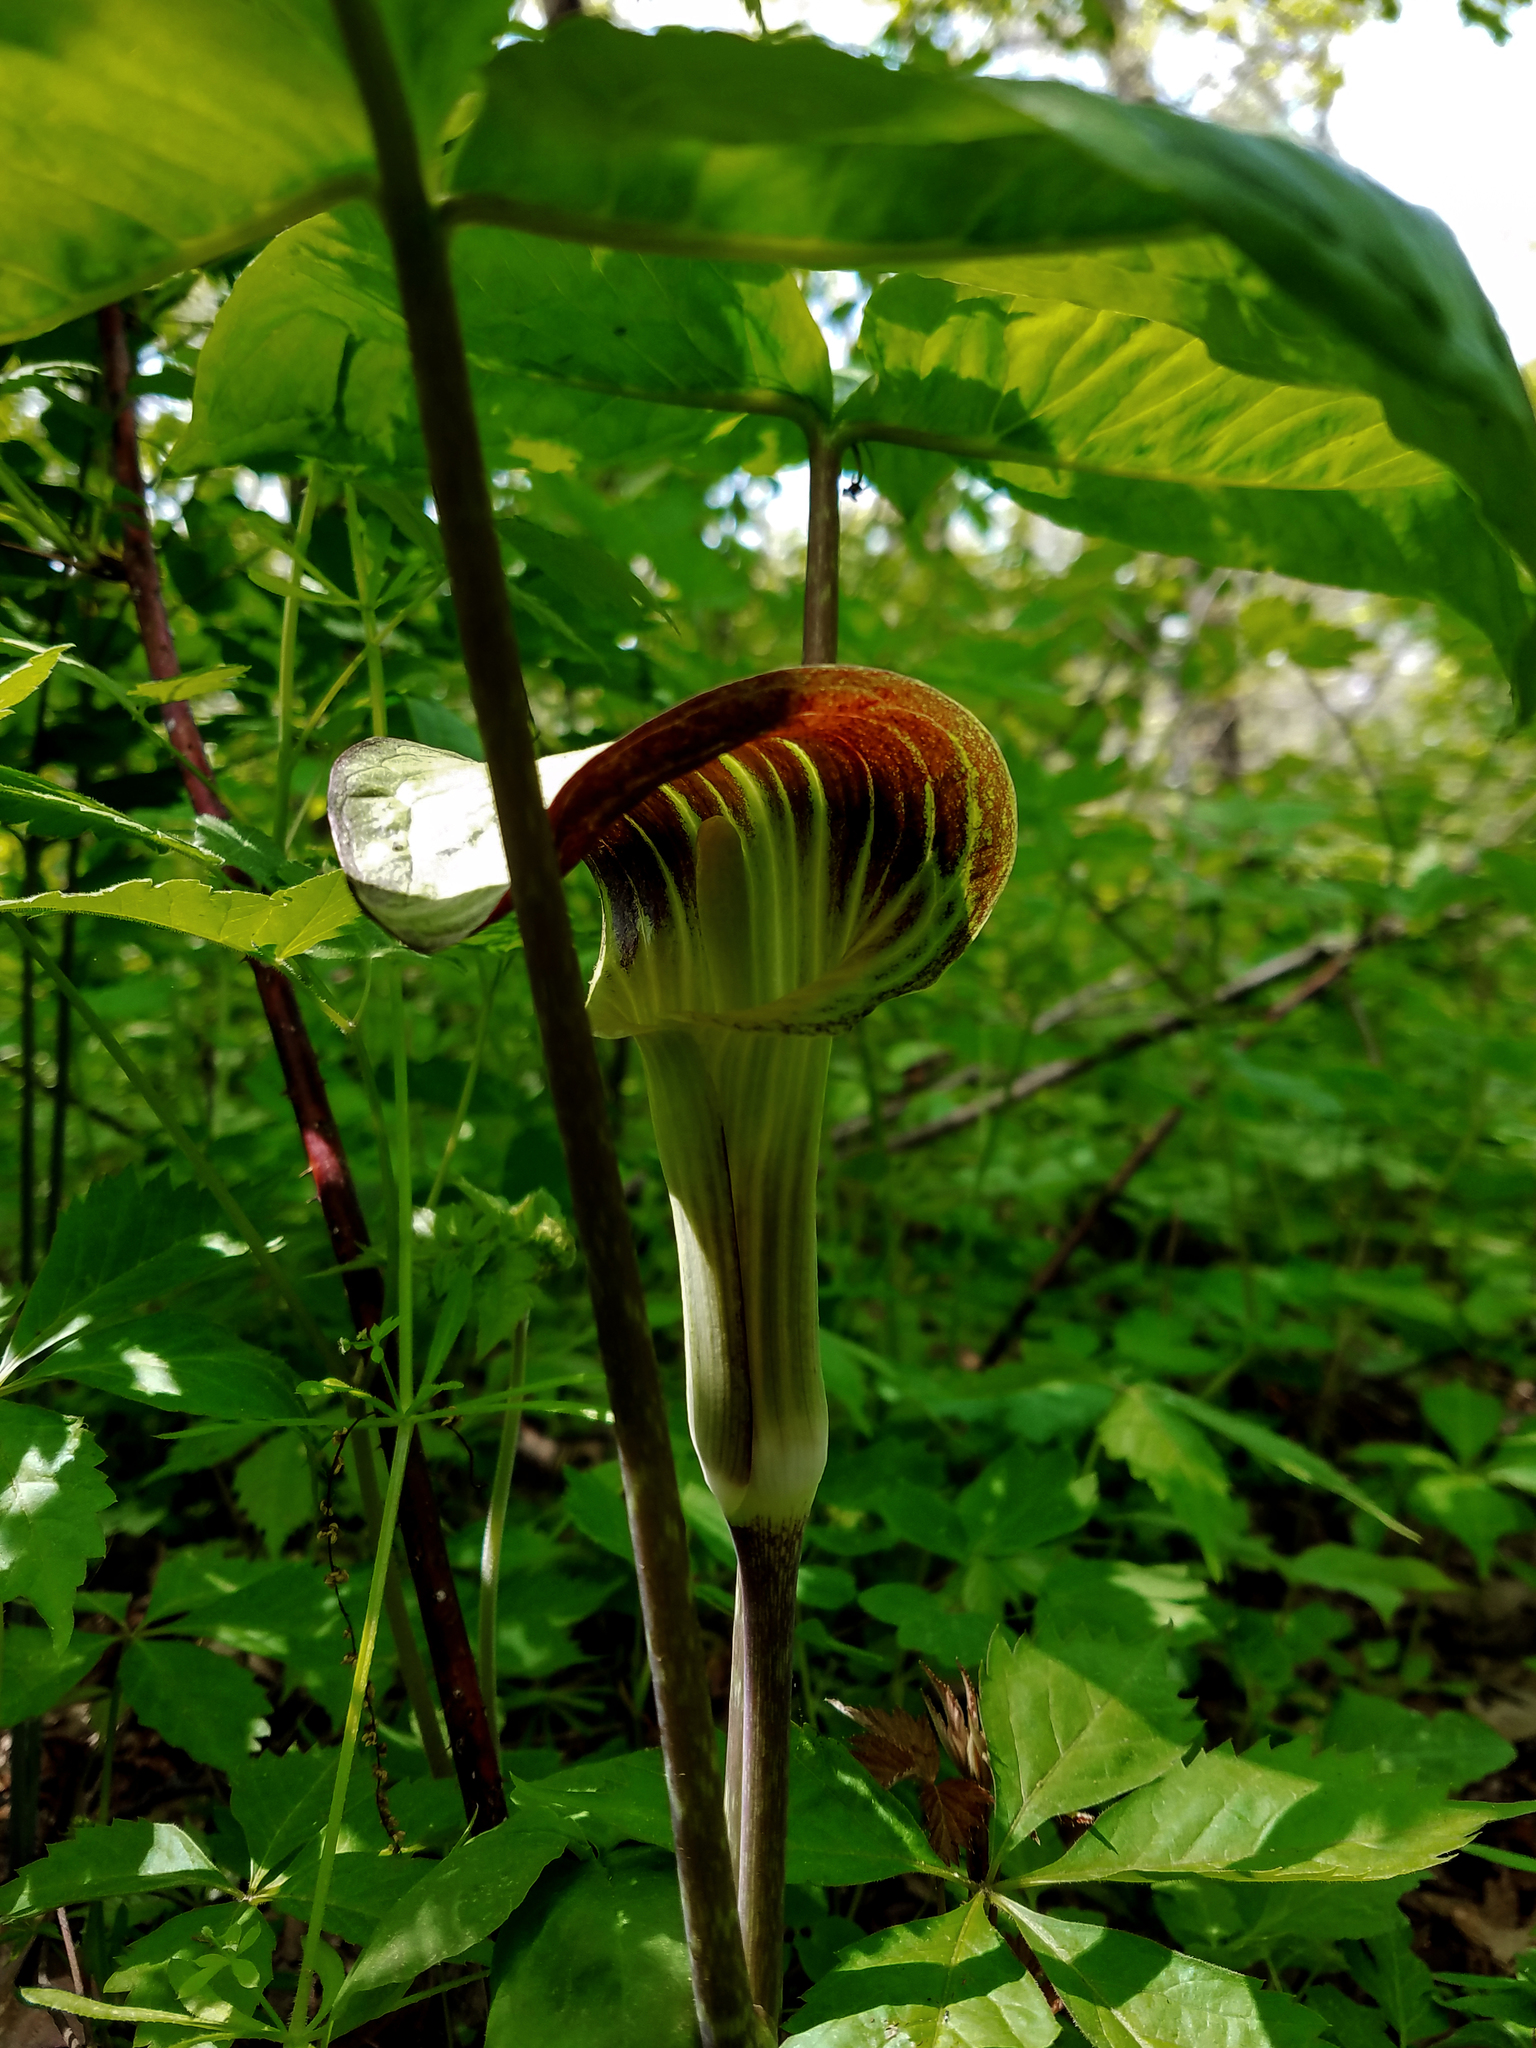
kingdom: Plantae
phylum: Tracheophyta
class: Liliopsida
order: Alismatales
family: Araceae
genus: Arisaema
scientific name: Arisaema triphyllum
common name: Jack-in-the-pulpit
